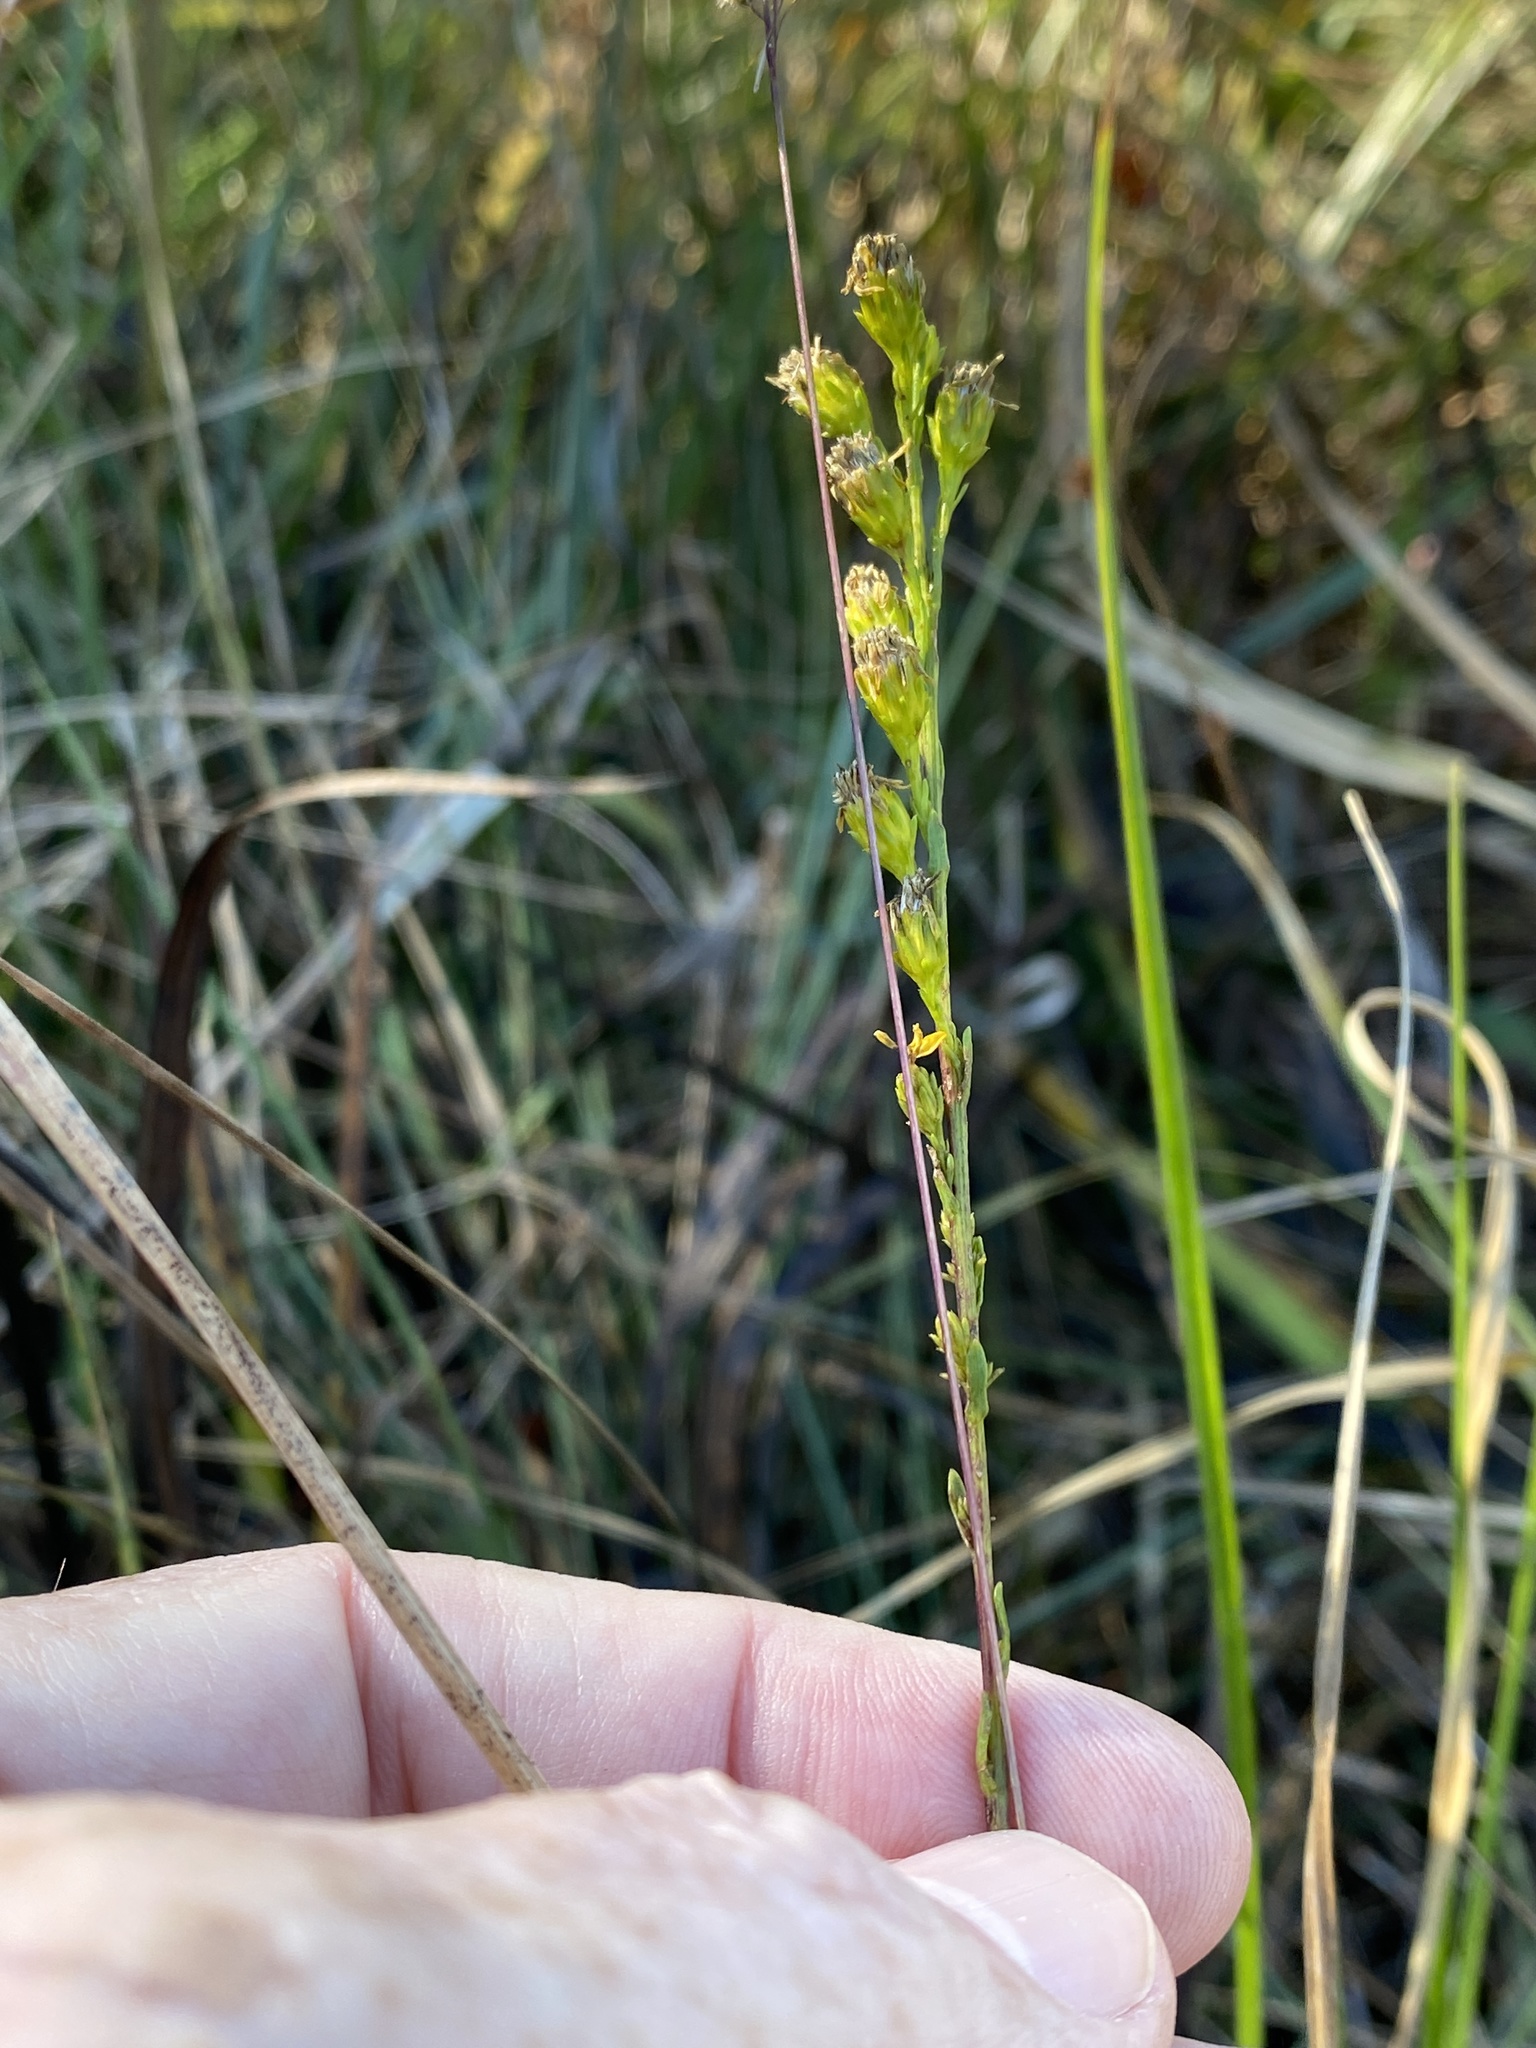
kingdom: Plantae
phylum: Tracheophyta
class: Magnoliopsida
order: Asterales
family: Asteraceae
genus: Solidago
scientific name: Solidago pulchra
